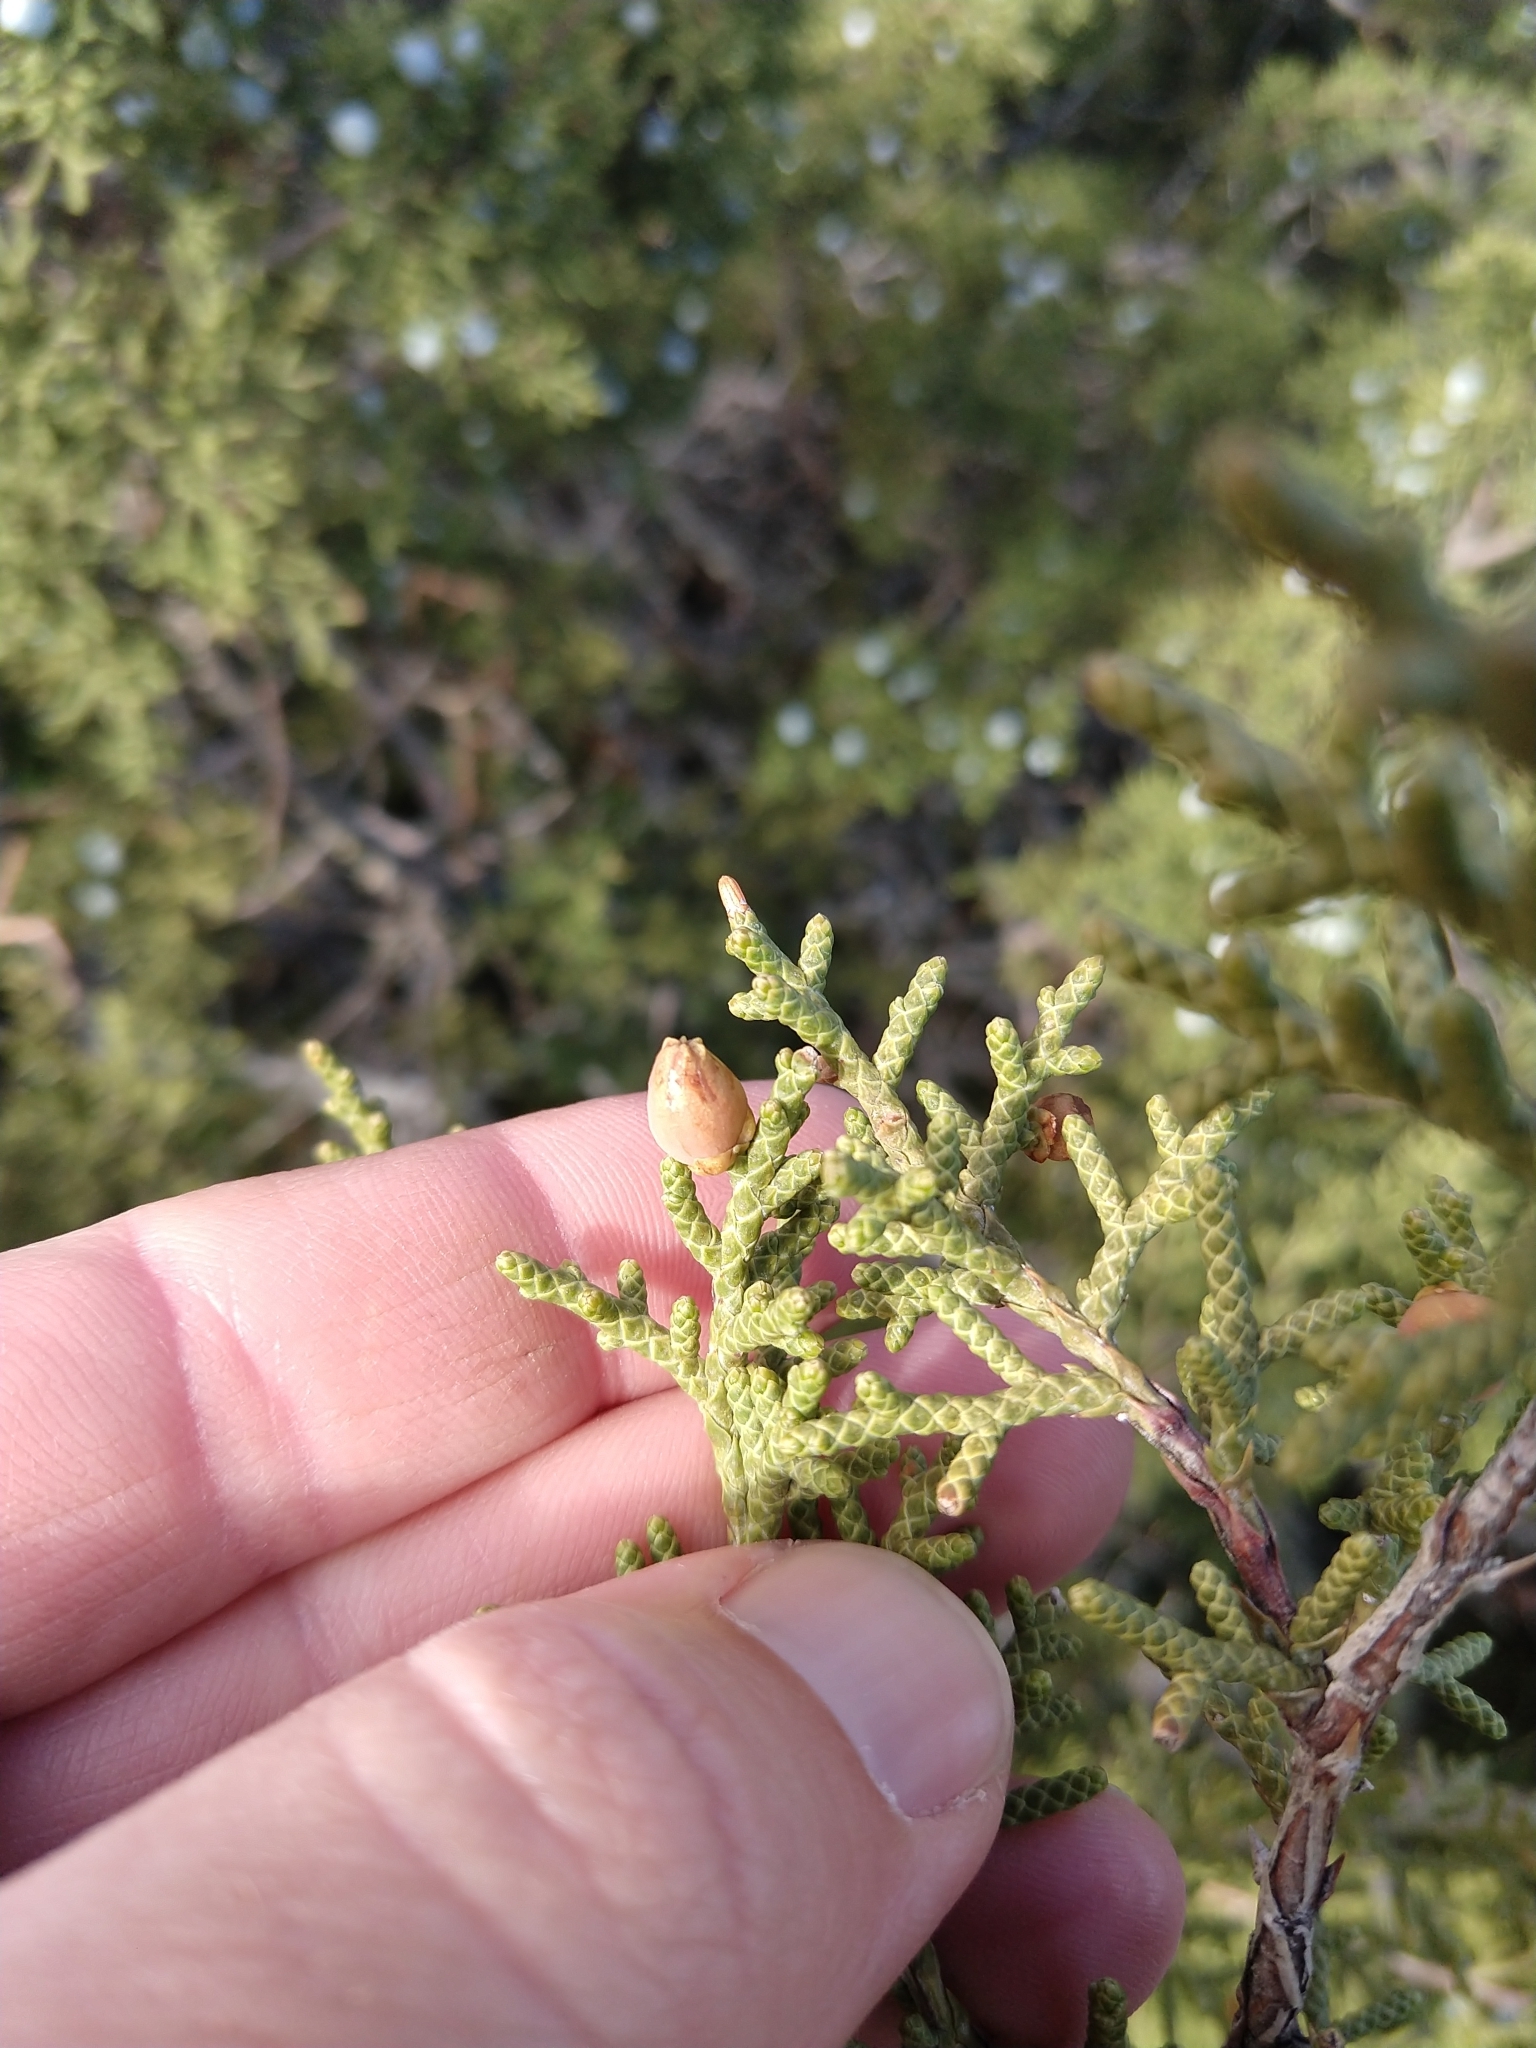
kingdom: Animalia
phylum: Arthropoda
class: Insecta
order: Diptera
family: Cecidomyiidae
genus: Walshomyia
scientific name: Walshomyia juniperina
